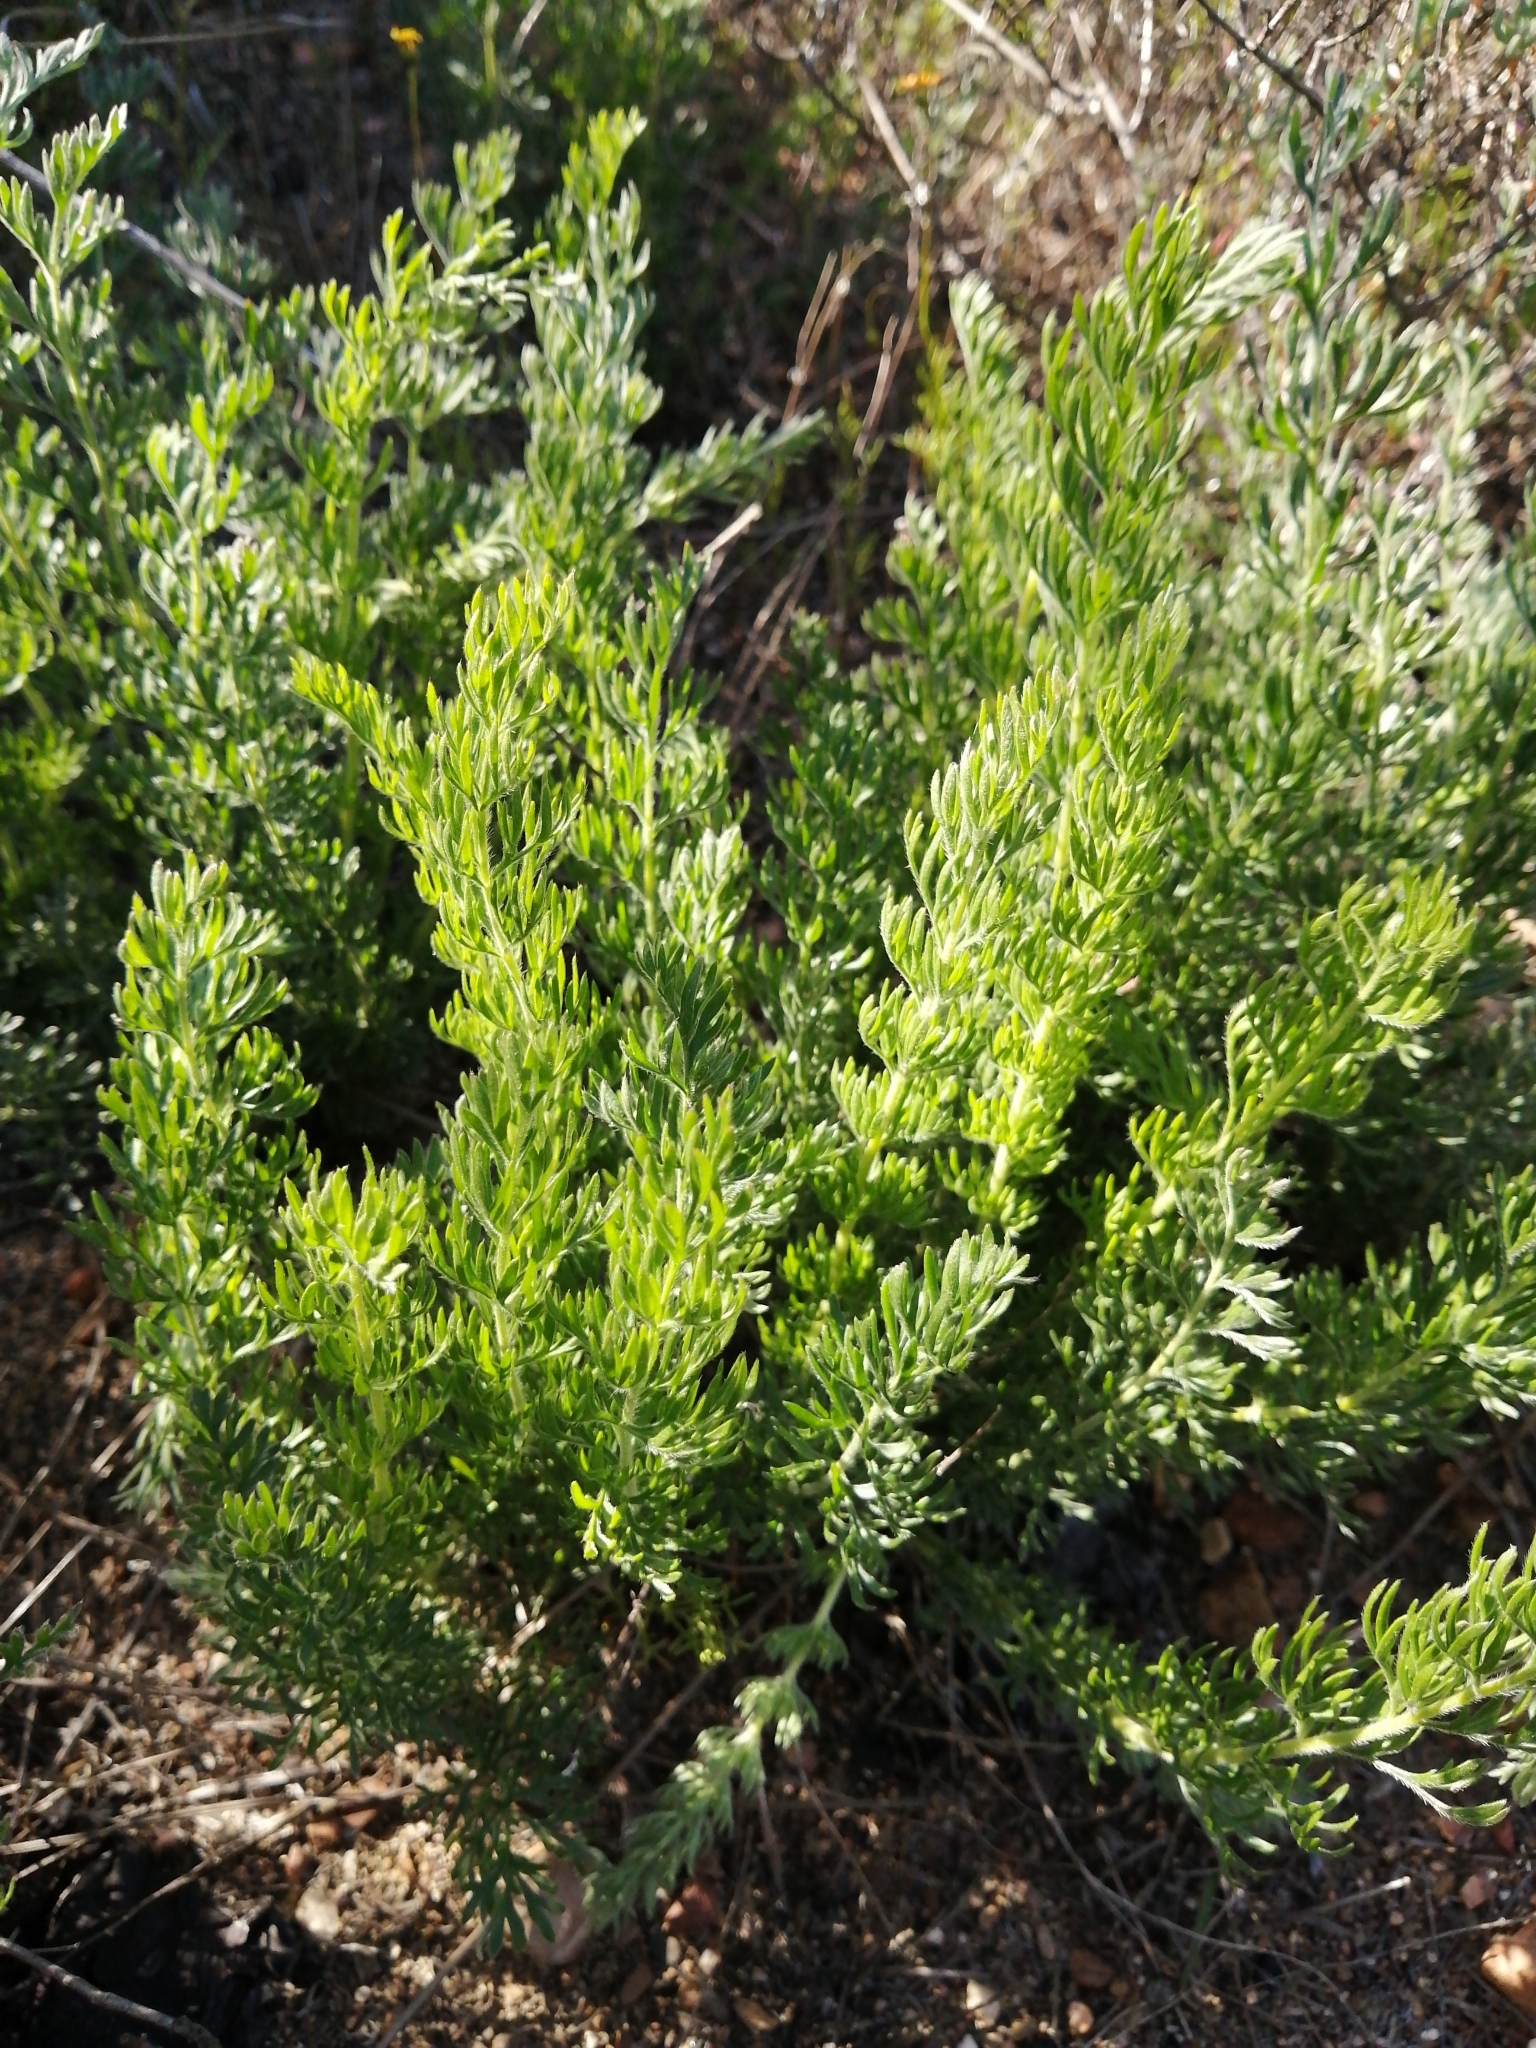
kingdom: Plantae
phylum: Tracheophyta
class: Magnoliopsida
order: Geraniales
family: Geraniaceae
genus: Pelargonium
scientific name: Pelargonium rapaceum
